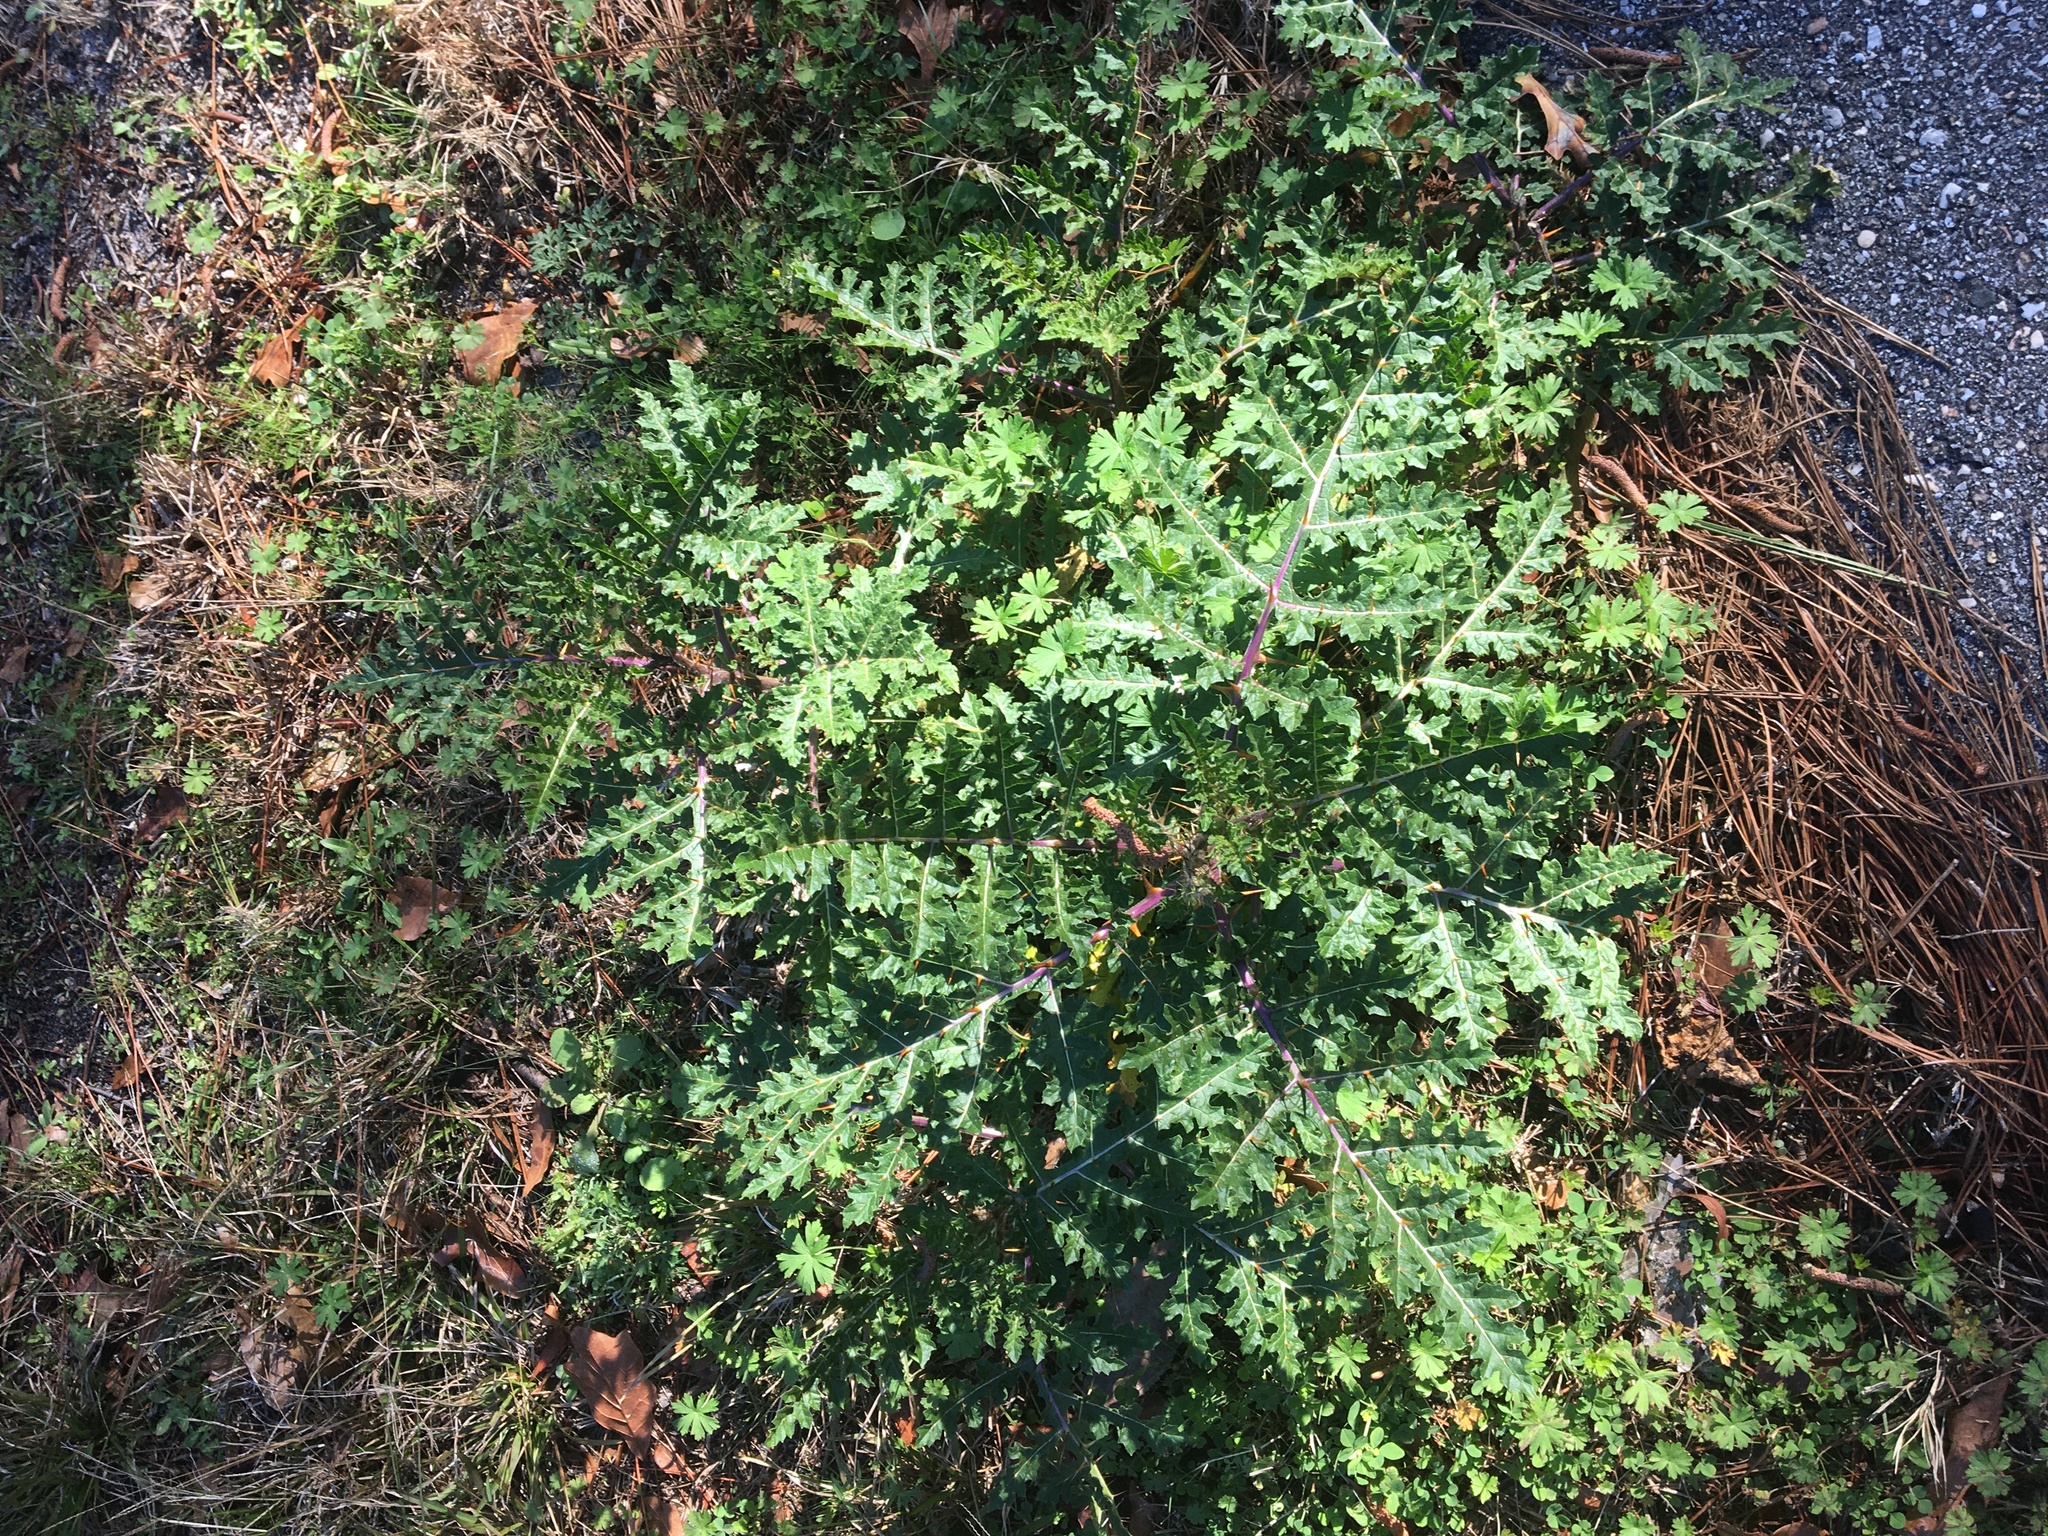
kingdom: Plantae
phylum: Tracheophyta
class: Magnoliopsida
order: Solanales
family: Solanaceae
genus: Solanum
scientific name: Solanum sisymbriifolium
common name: Red buffalo-bur
